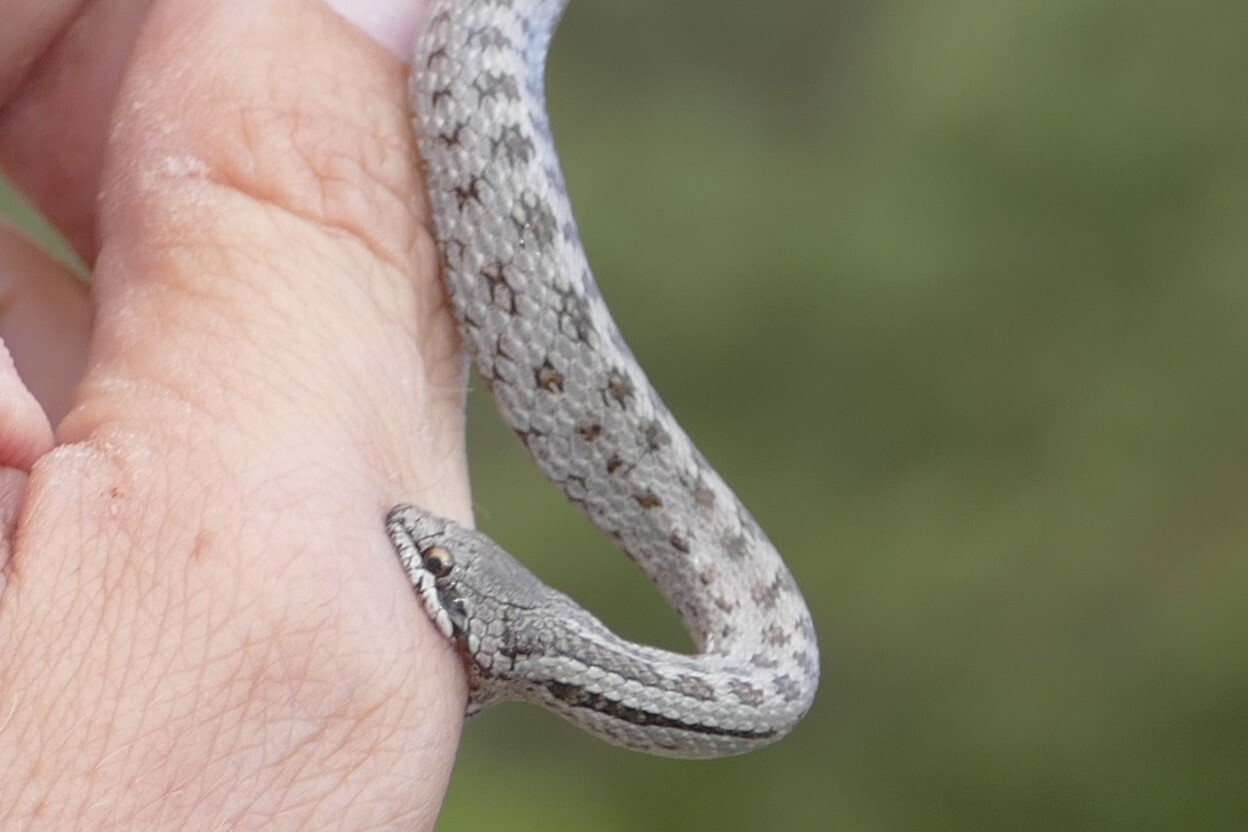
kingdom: Animalia
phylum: Chordata
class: Squamata
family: Colubridae
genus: Coronella
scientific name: Coronella austriaca
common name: Smooth snake
